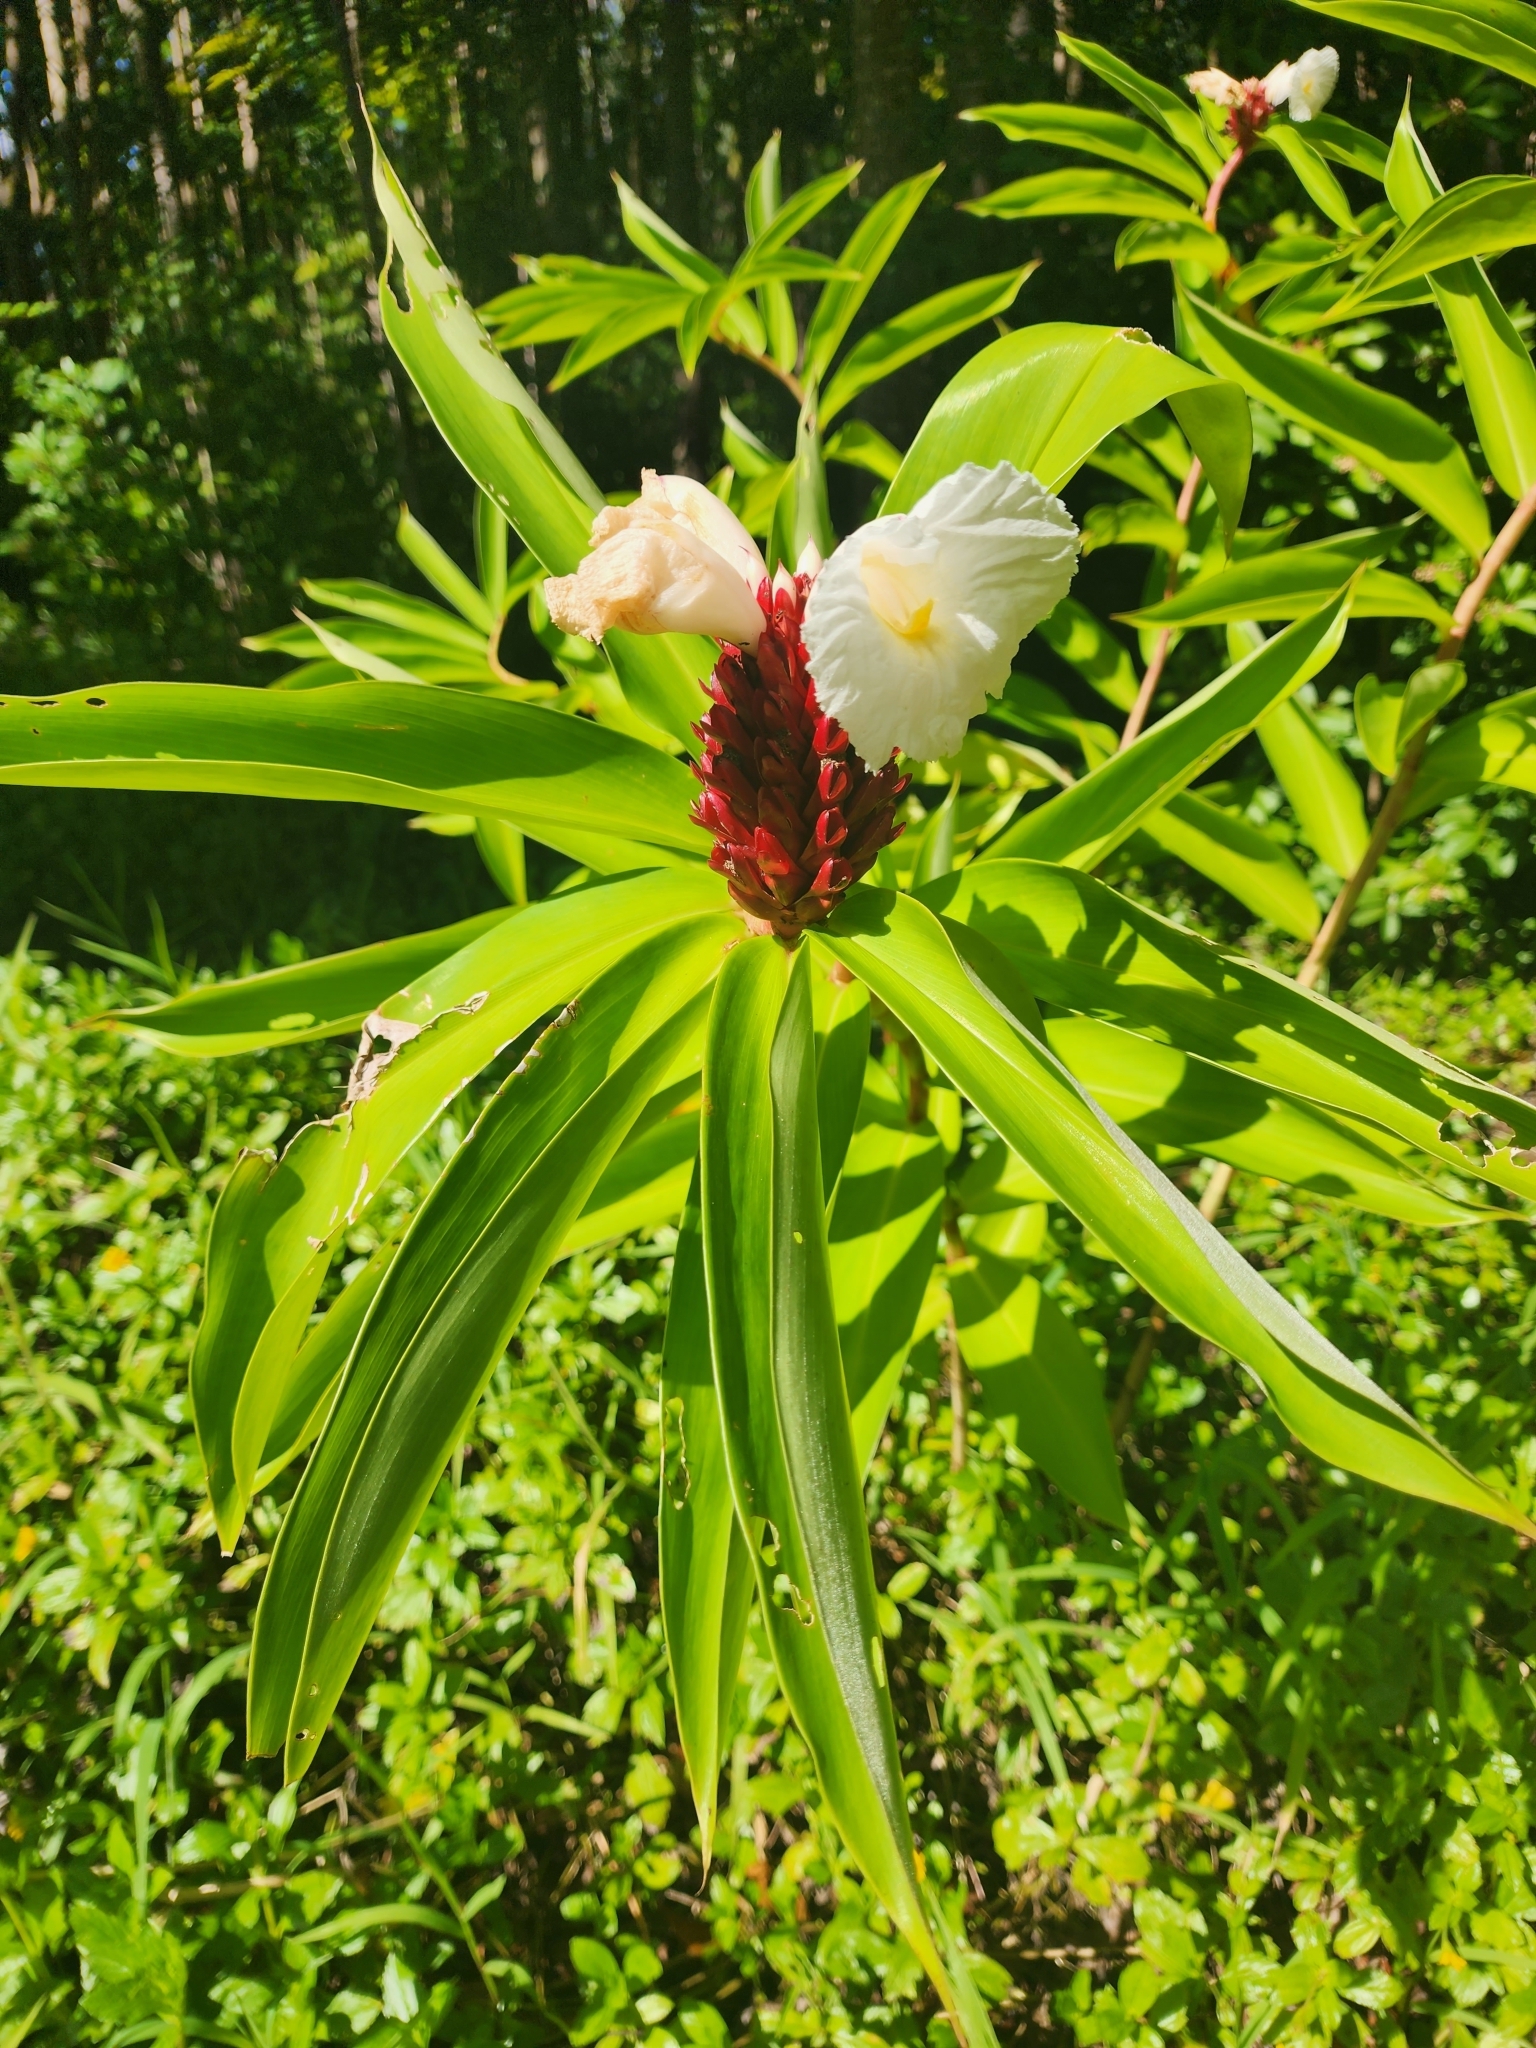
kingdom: Plantae
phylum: Tracheophyta
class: Liliopsida
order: Zingiberales
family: Costaceae
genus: Hellenia
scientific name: Hellenia speciosa
